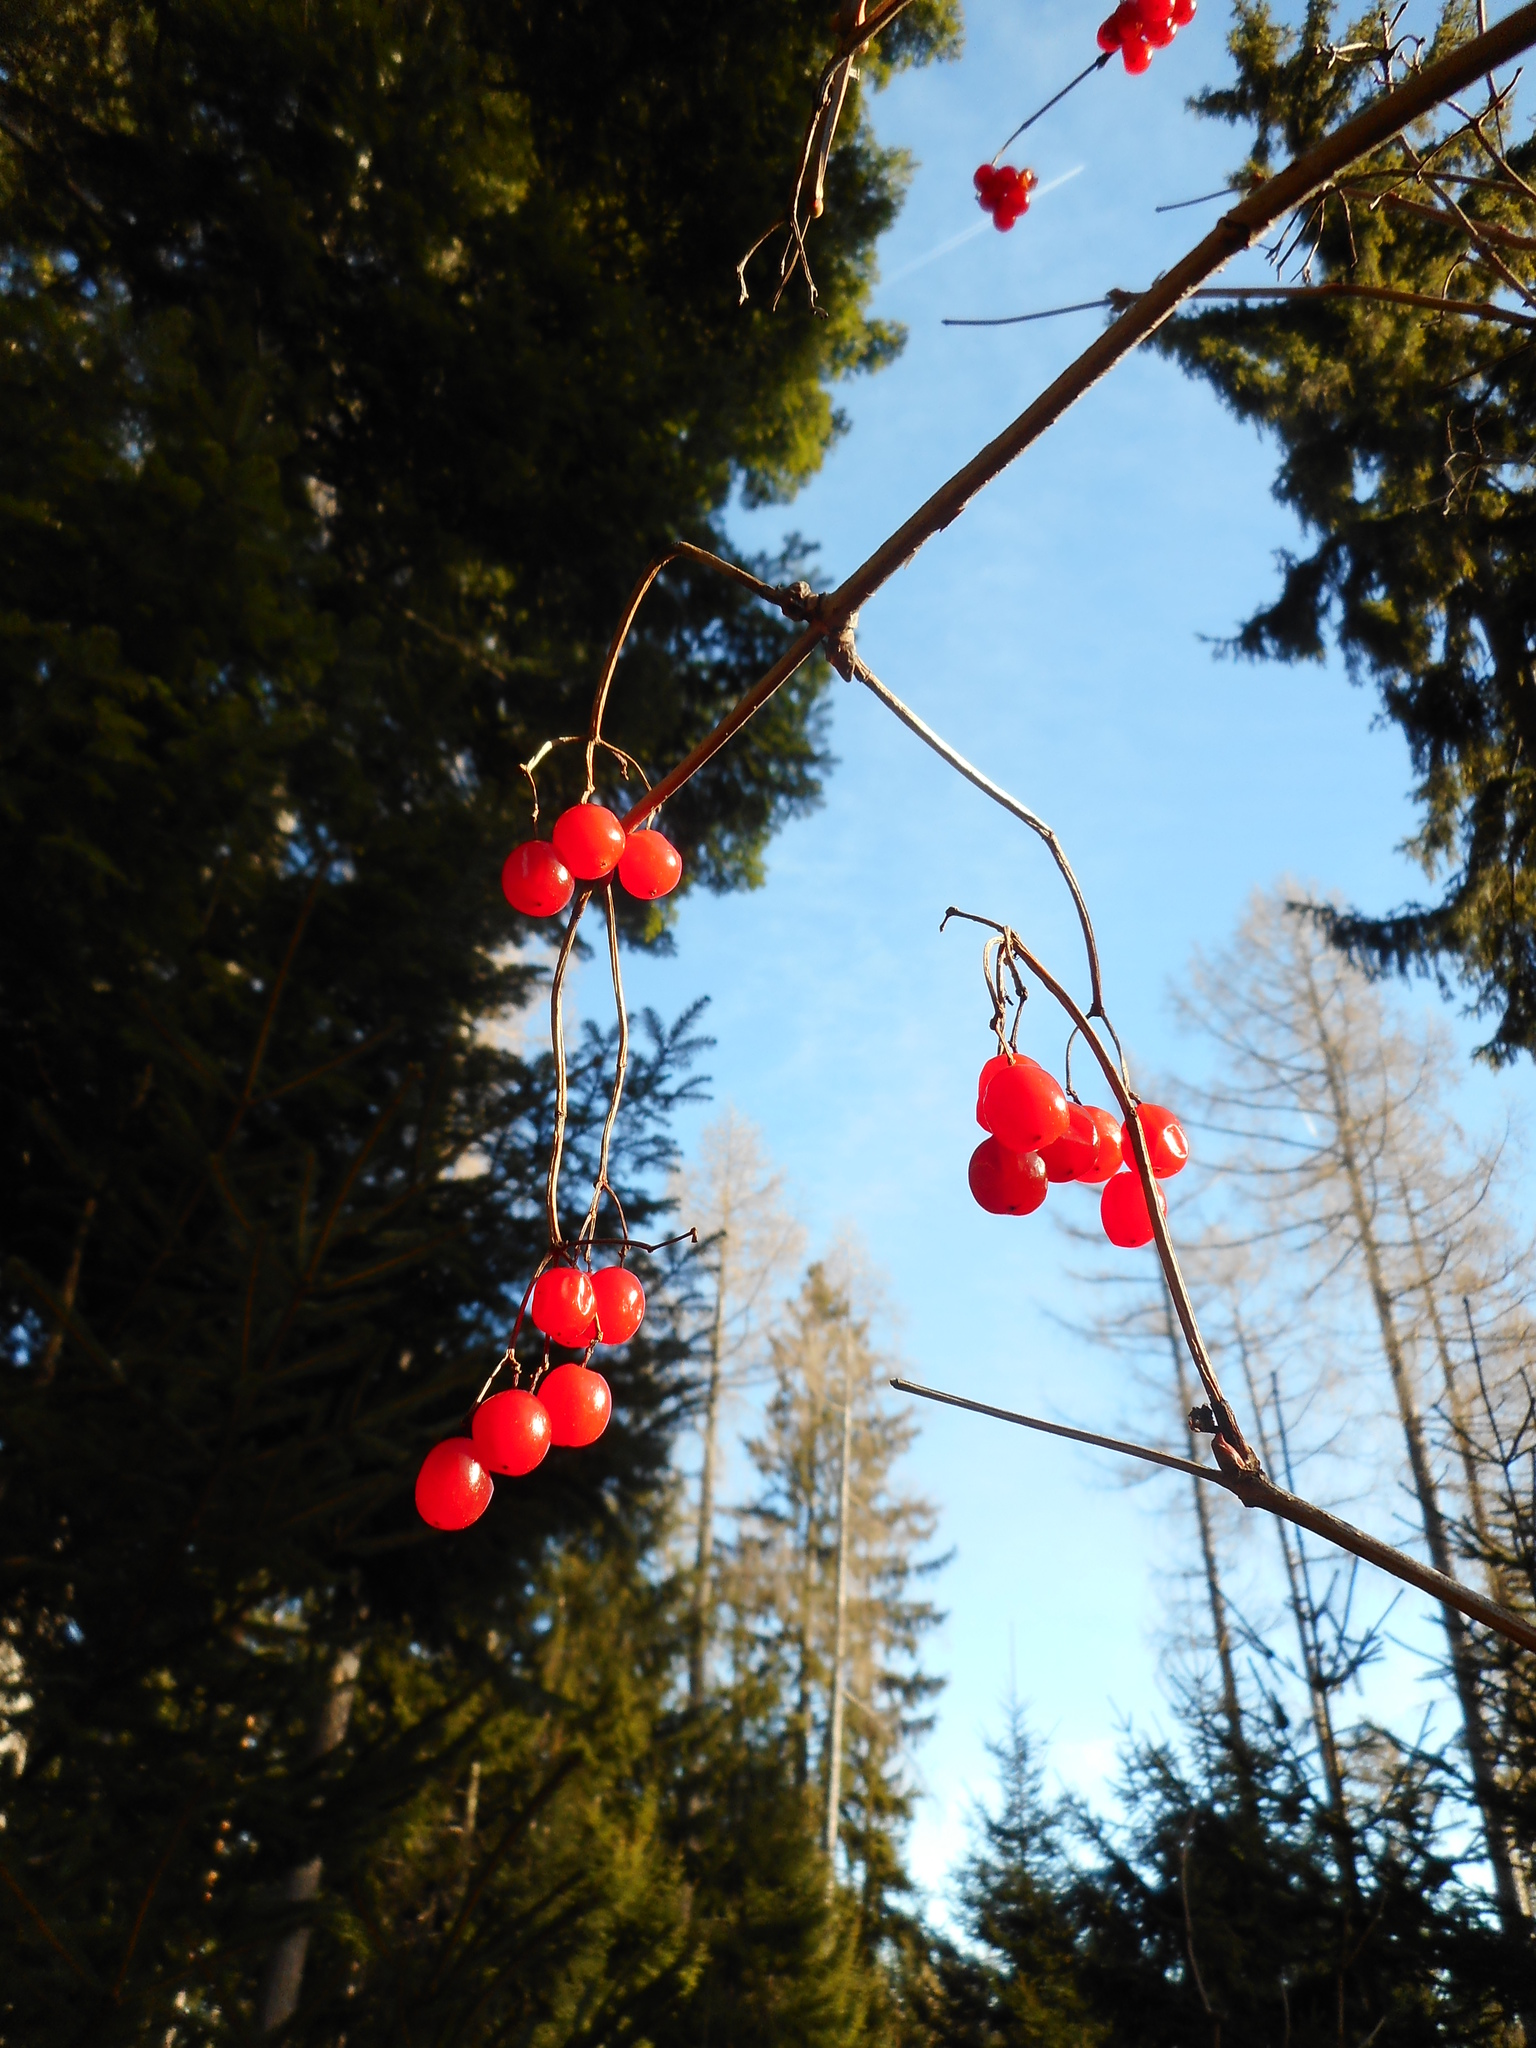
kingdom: Plantae
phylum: Tracheophyta
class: Magnoliopsida
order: Dipsacales
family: Viburnaceae
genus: Viburnum
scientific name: Viburnum opulus
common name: Guelder-rose
